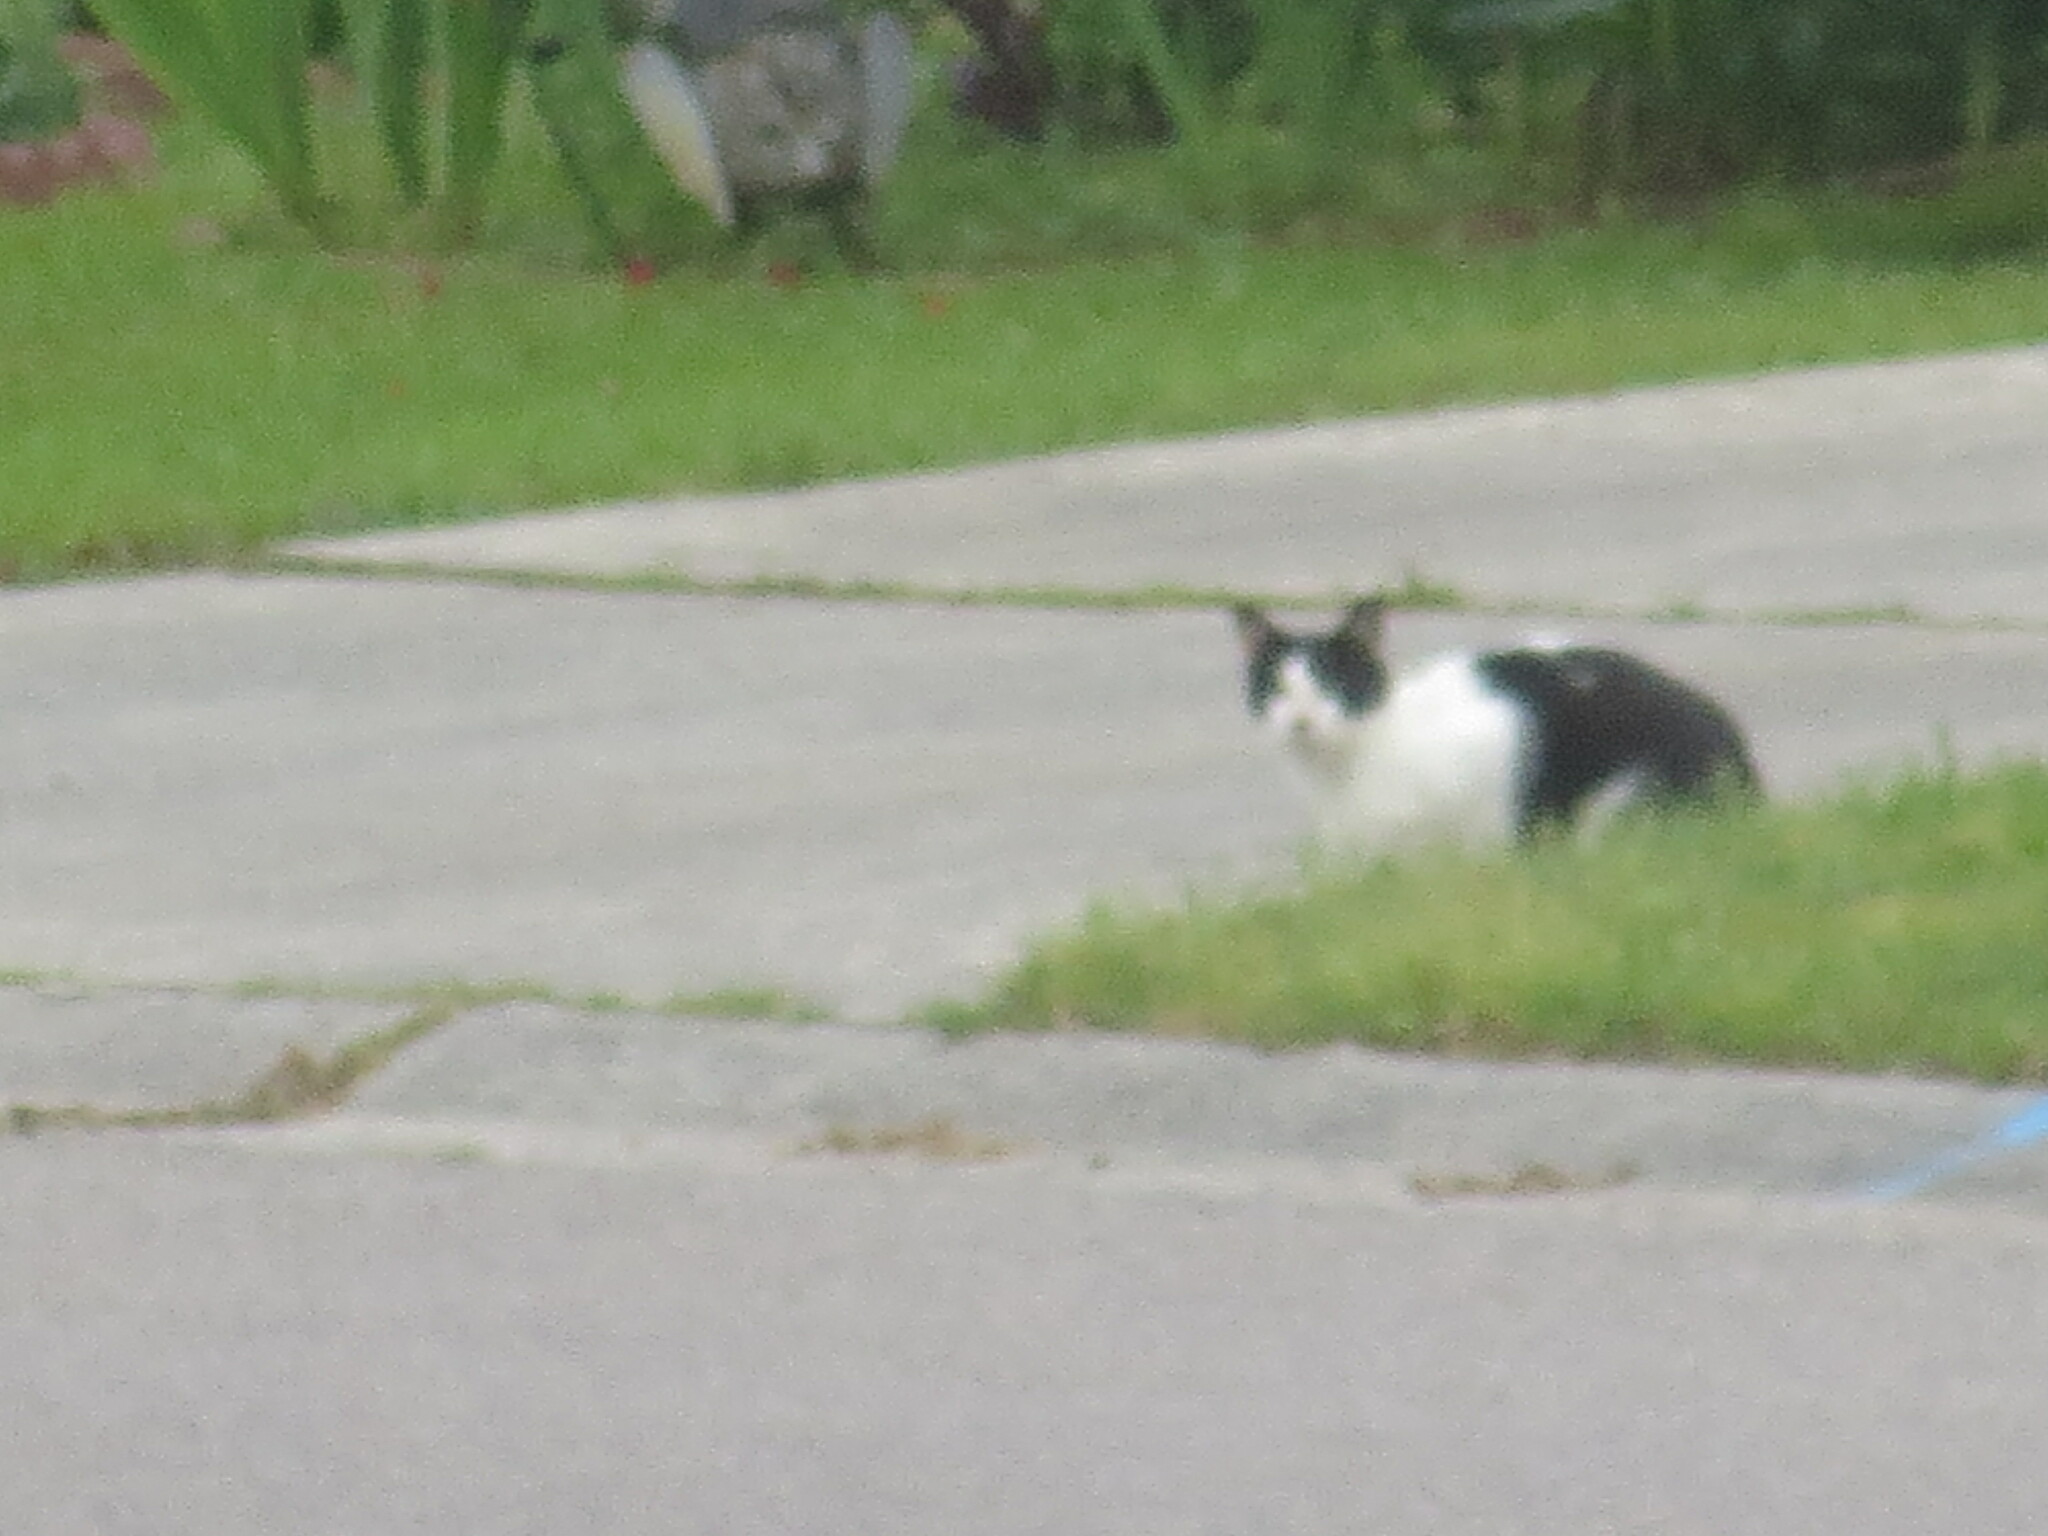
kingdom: Animalia
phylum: Chordata
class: Mammalia
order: Carnivora
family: Felidae
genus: Felis
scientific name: Felis catus
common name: Domestic cat
